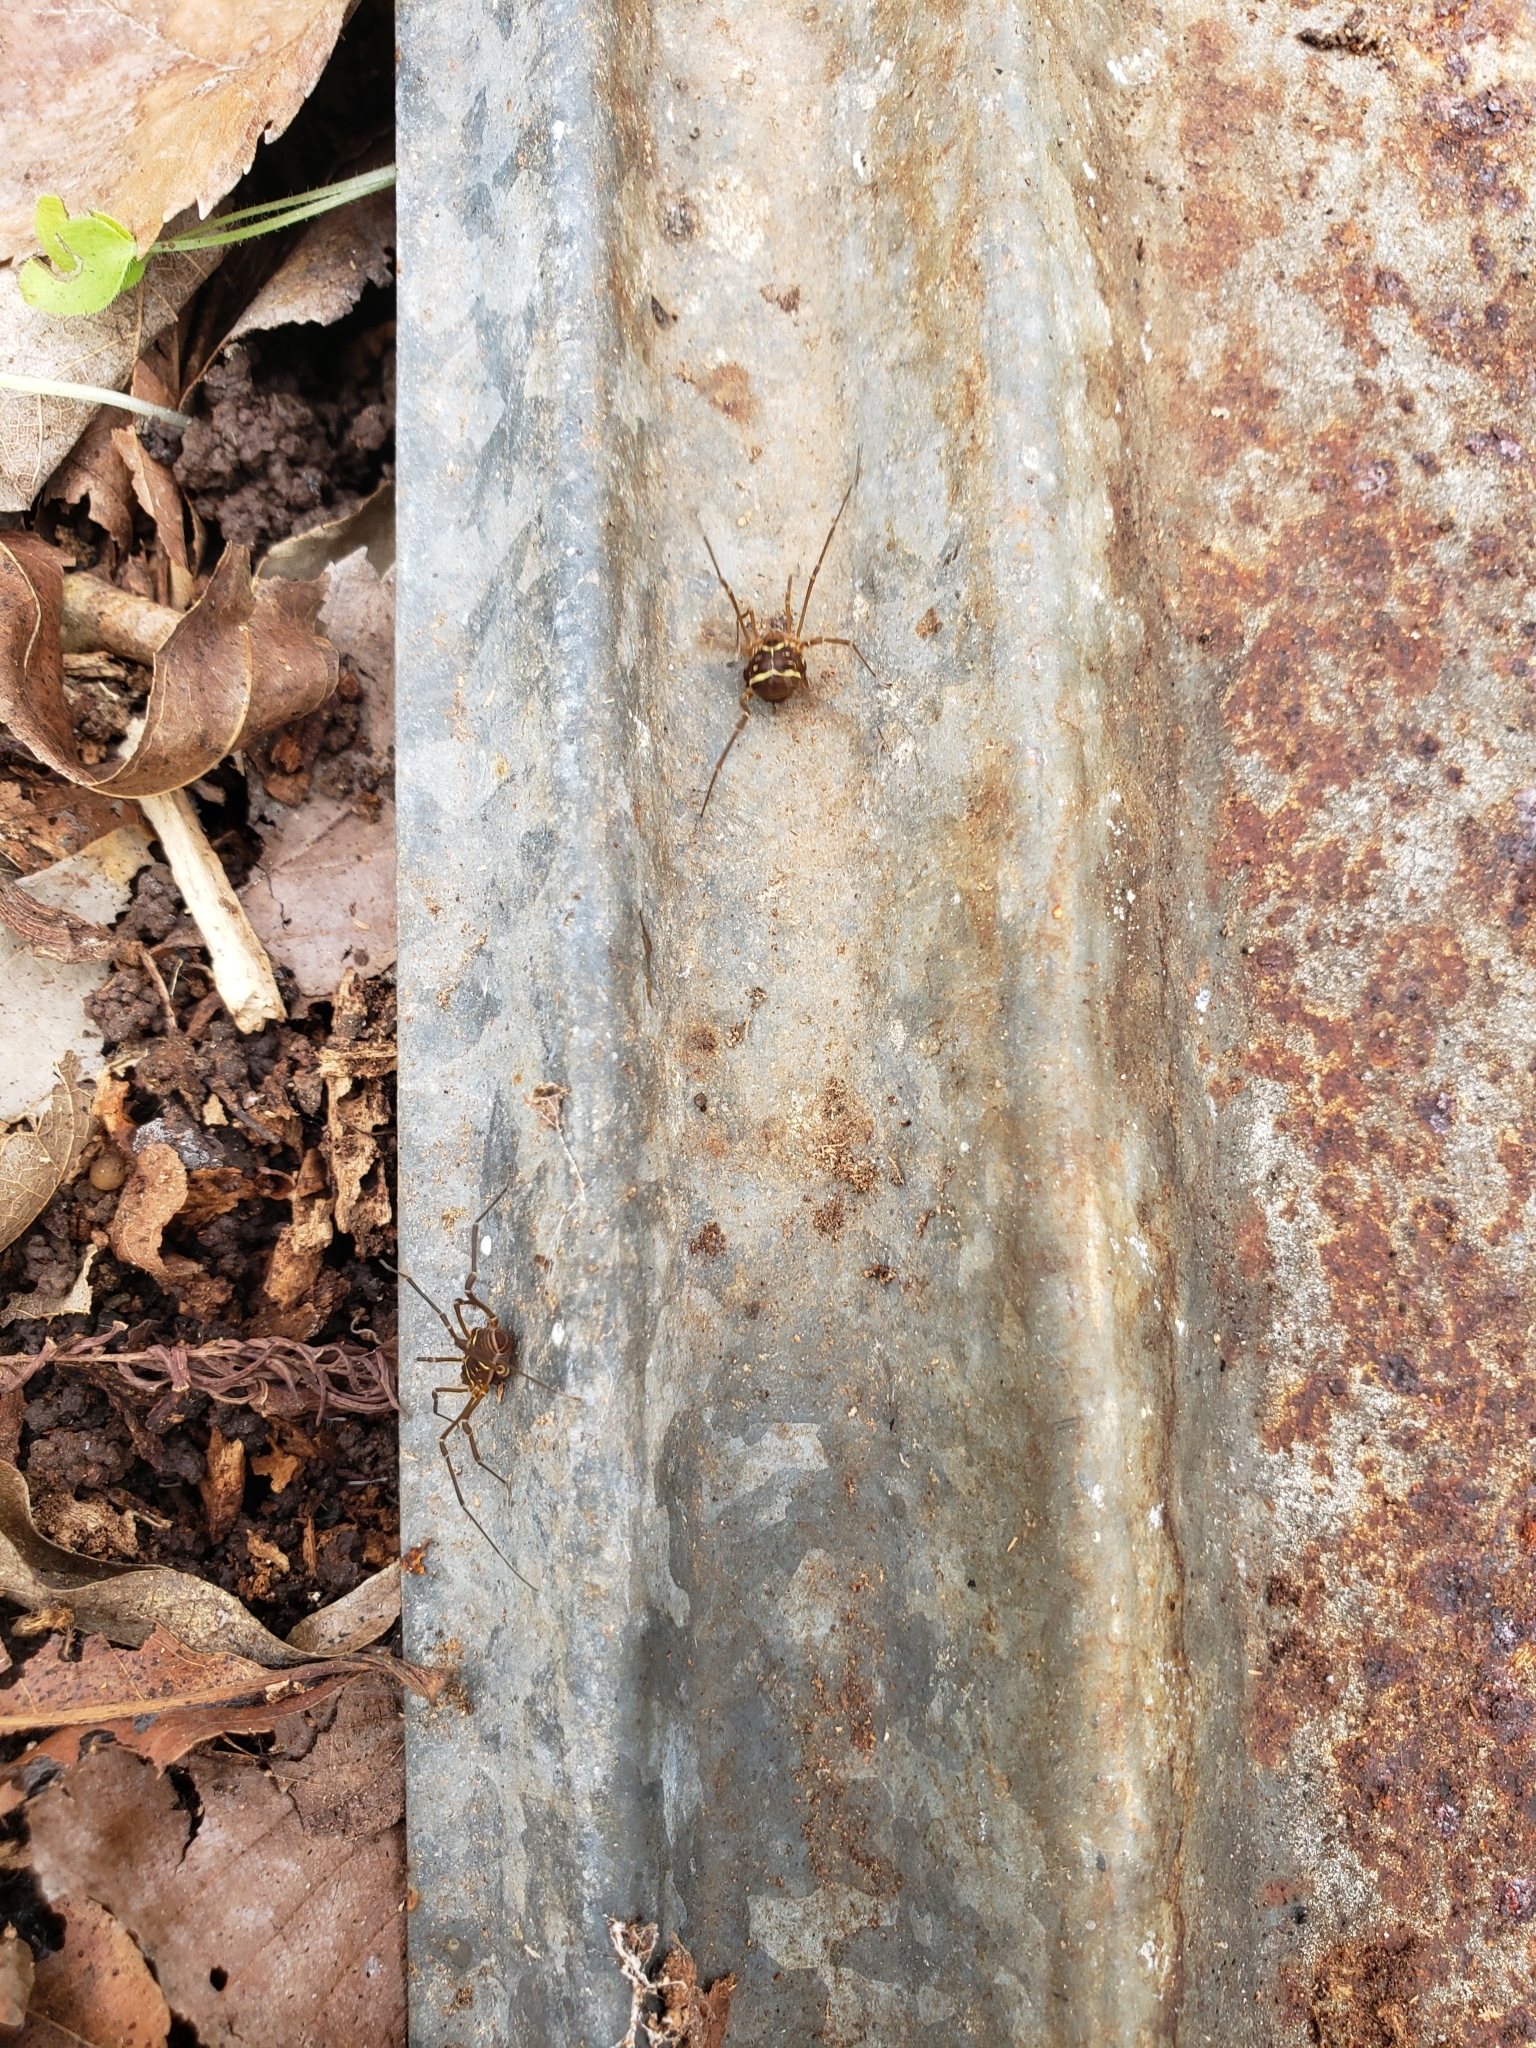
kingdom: Animalia
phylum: Arthropoda
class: Arachnida
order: Opiliones
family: Cosmetidae
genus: Libitioides
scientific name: Libitioides sayi
